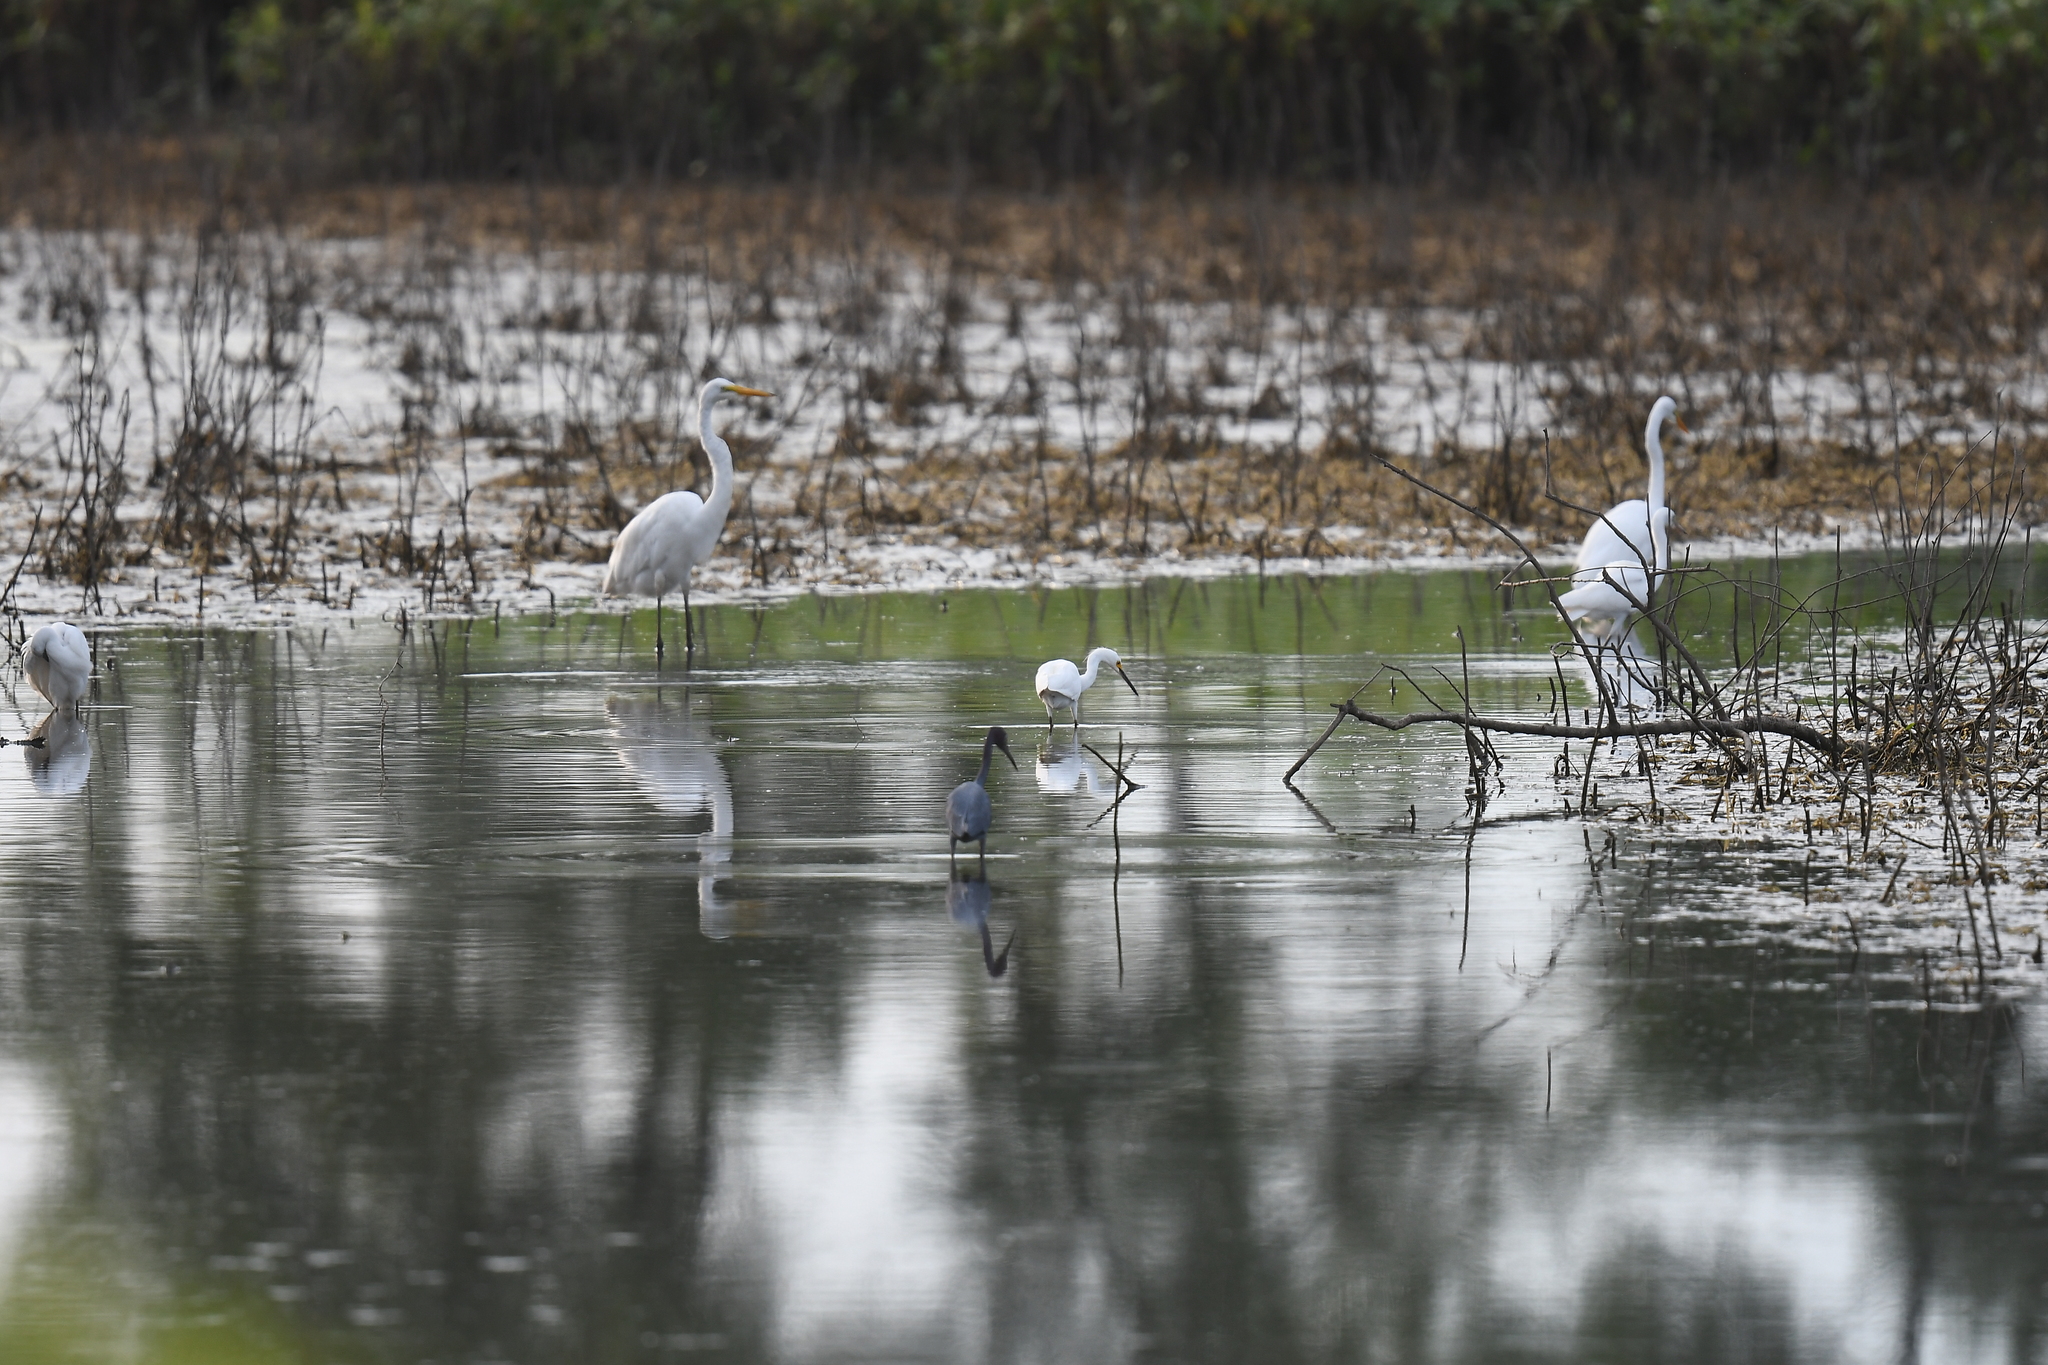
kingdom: Animalia
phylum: Chordata
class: Aves
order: Pelecaniformes
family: Ardeidae
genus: Ardea
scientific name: Ardea alba
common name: Great egret
